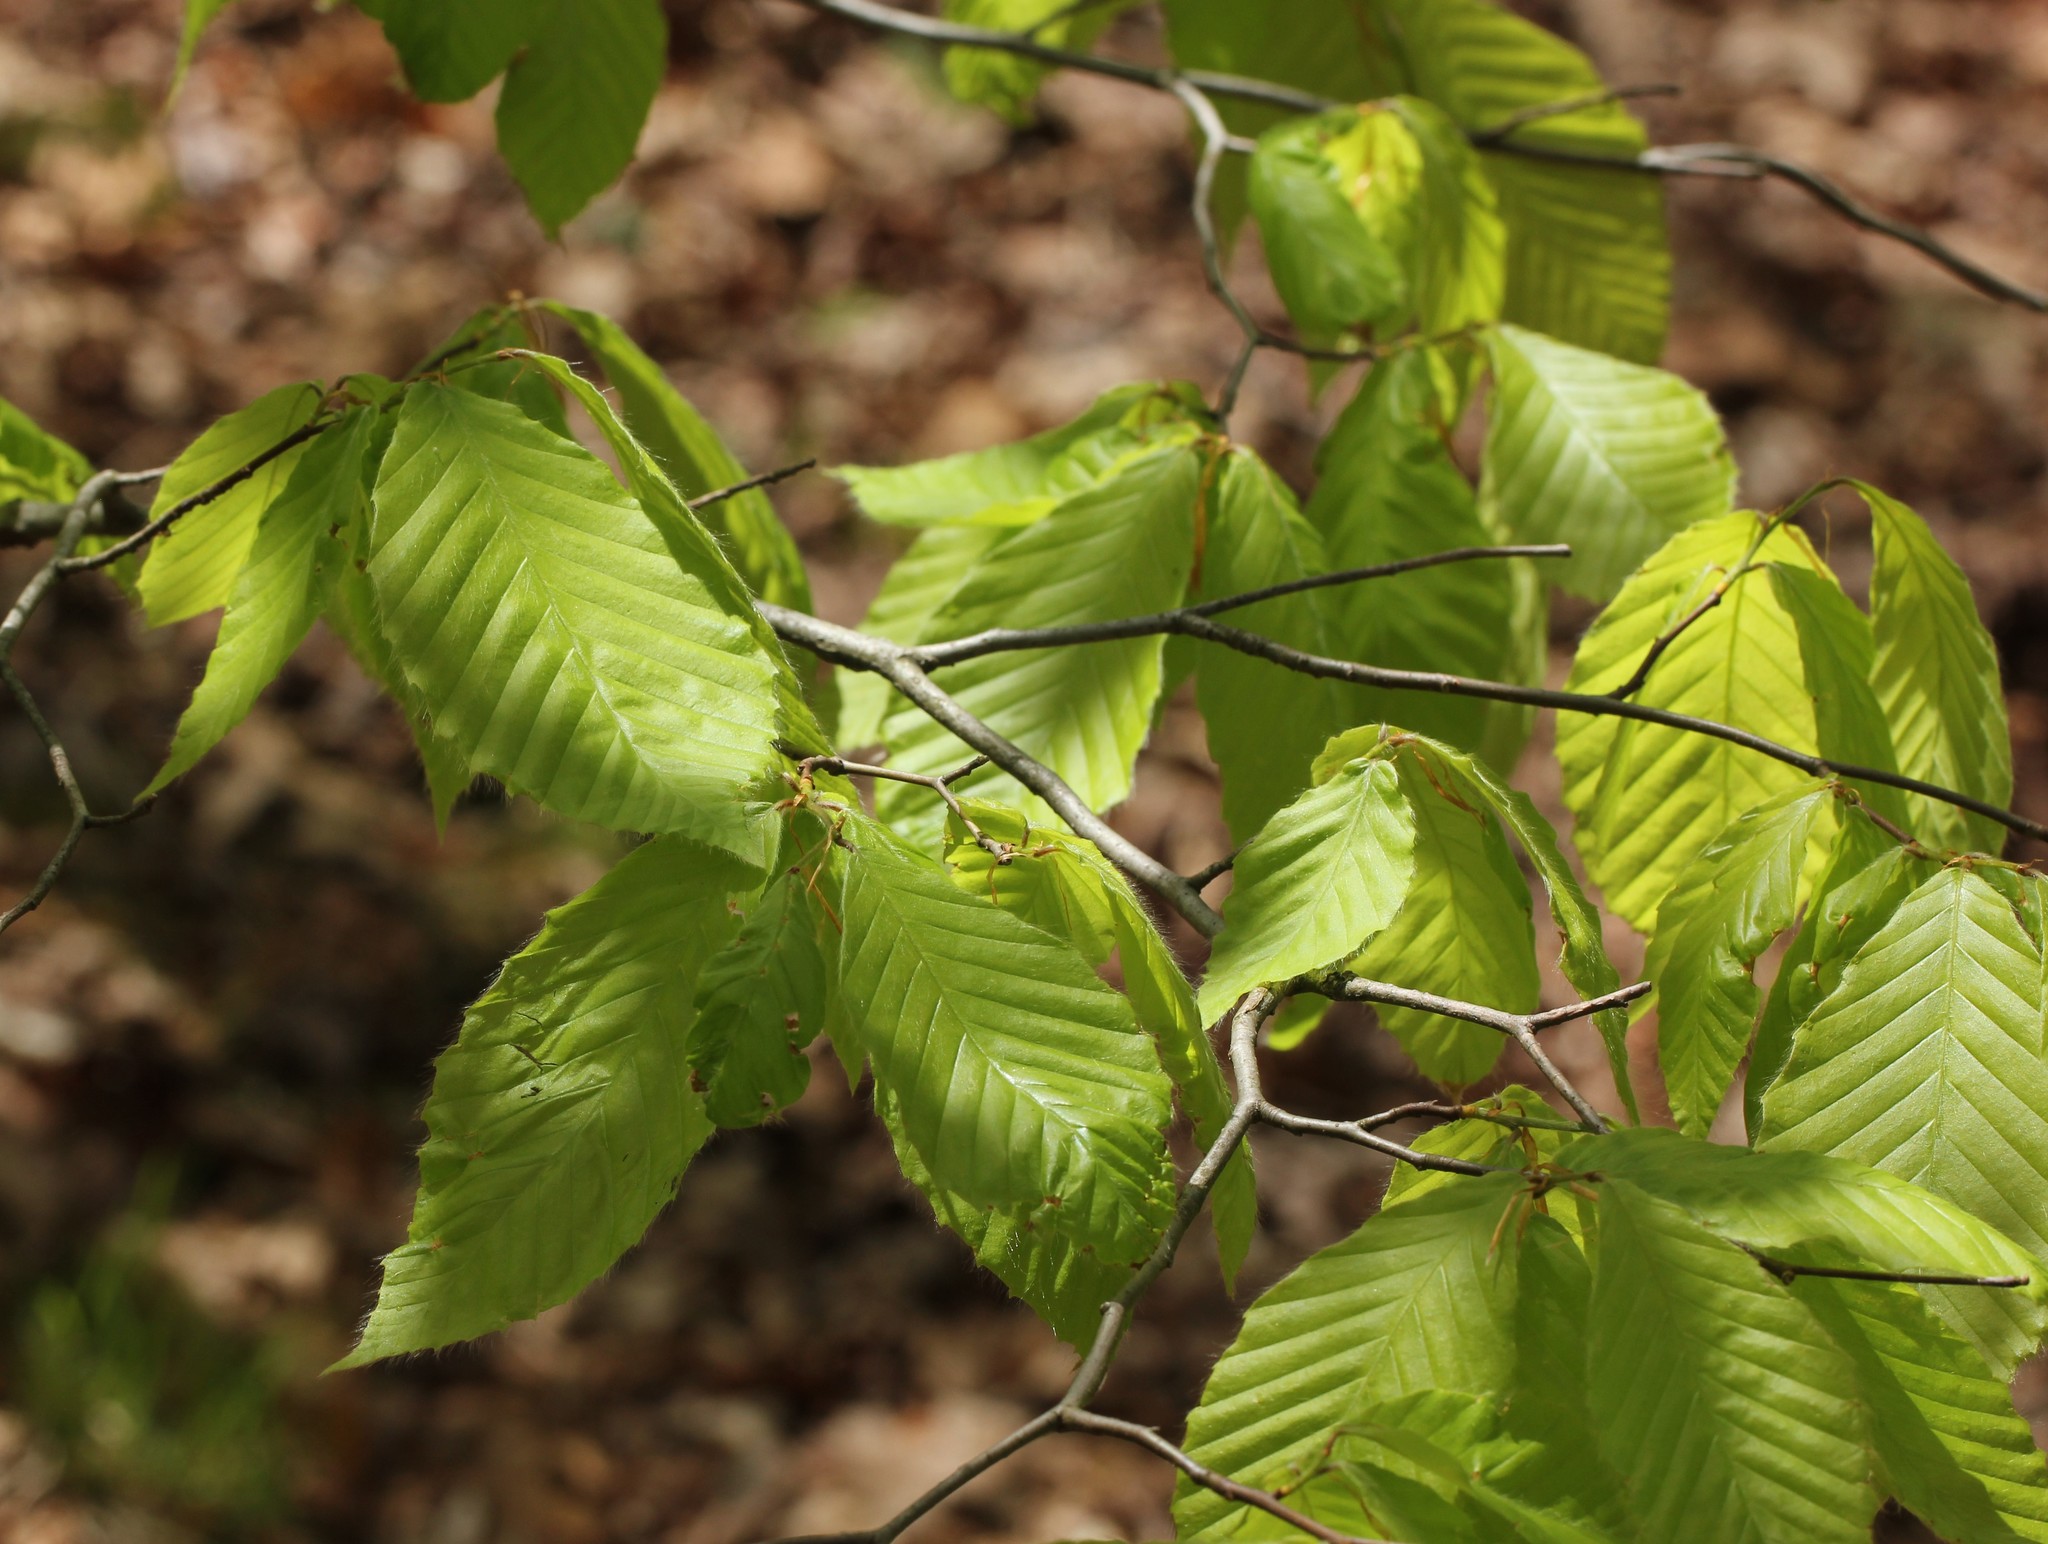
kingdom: Plantae
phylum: Tracheophyta
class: Magnoliopsida
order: Fagales
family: Fagaceae
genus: Fagus
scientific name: Fagus grandifolia
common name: American beech
